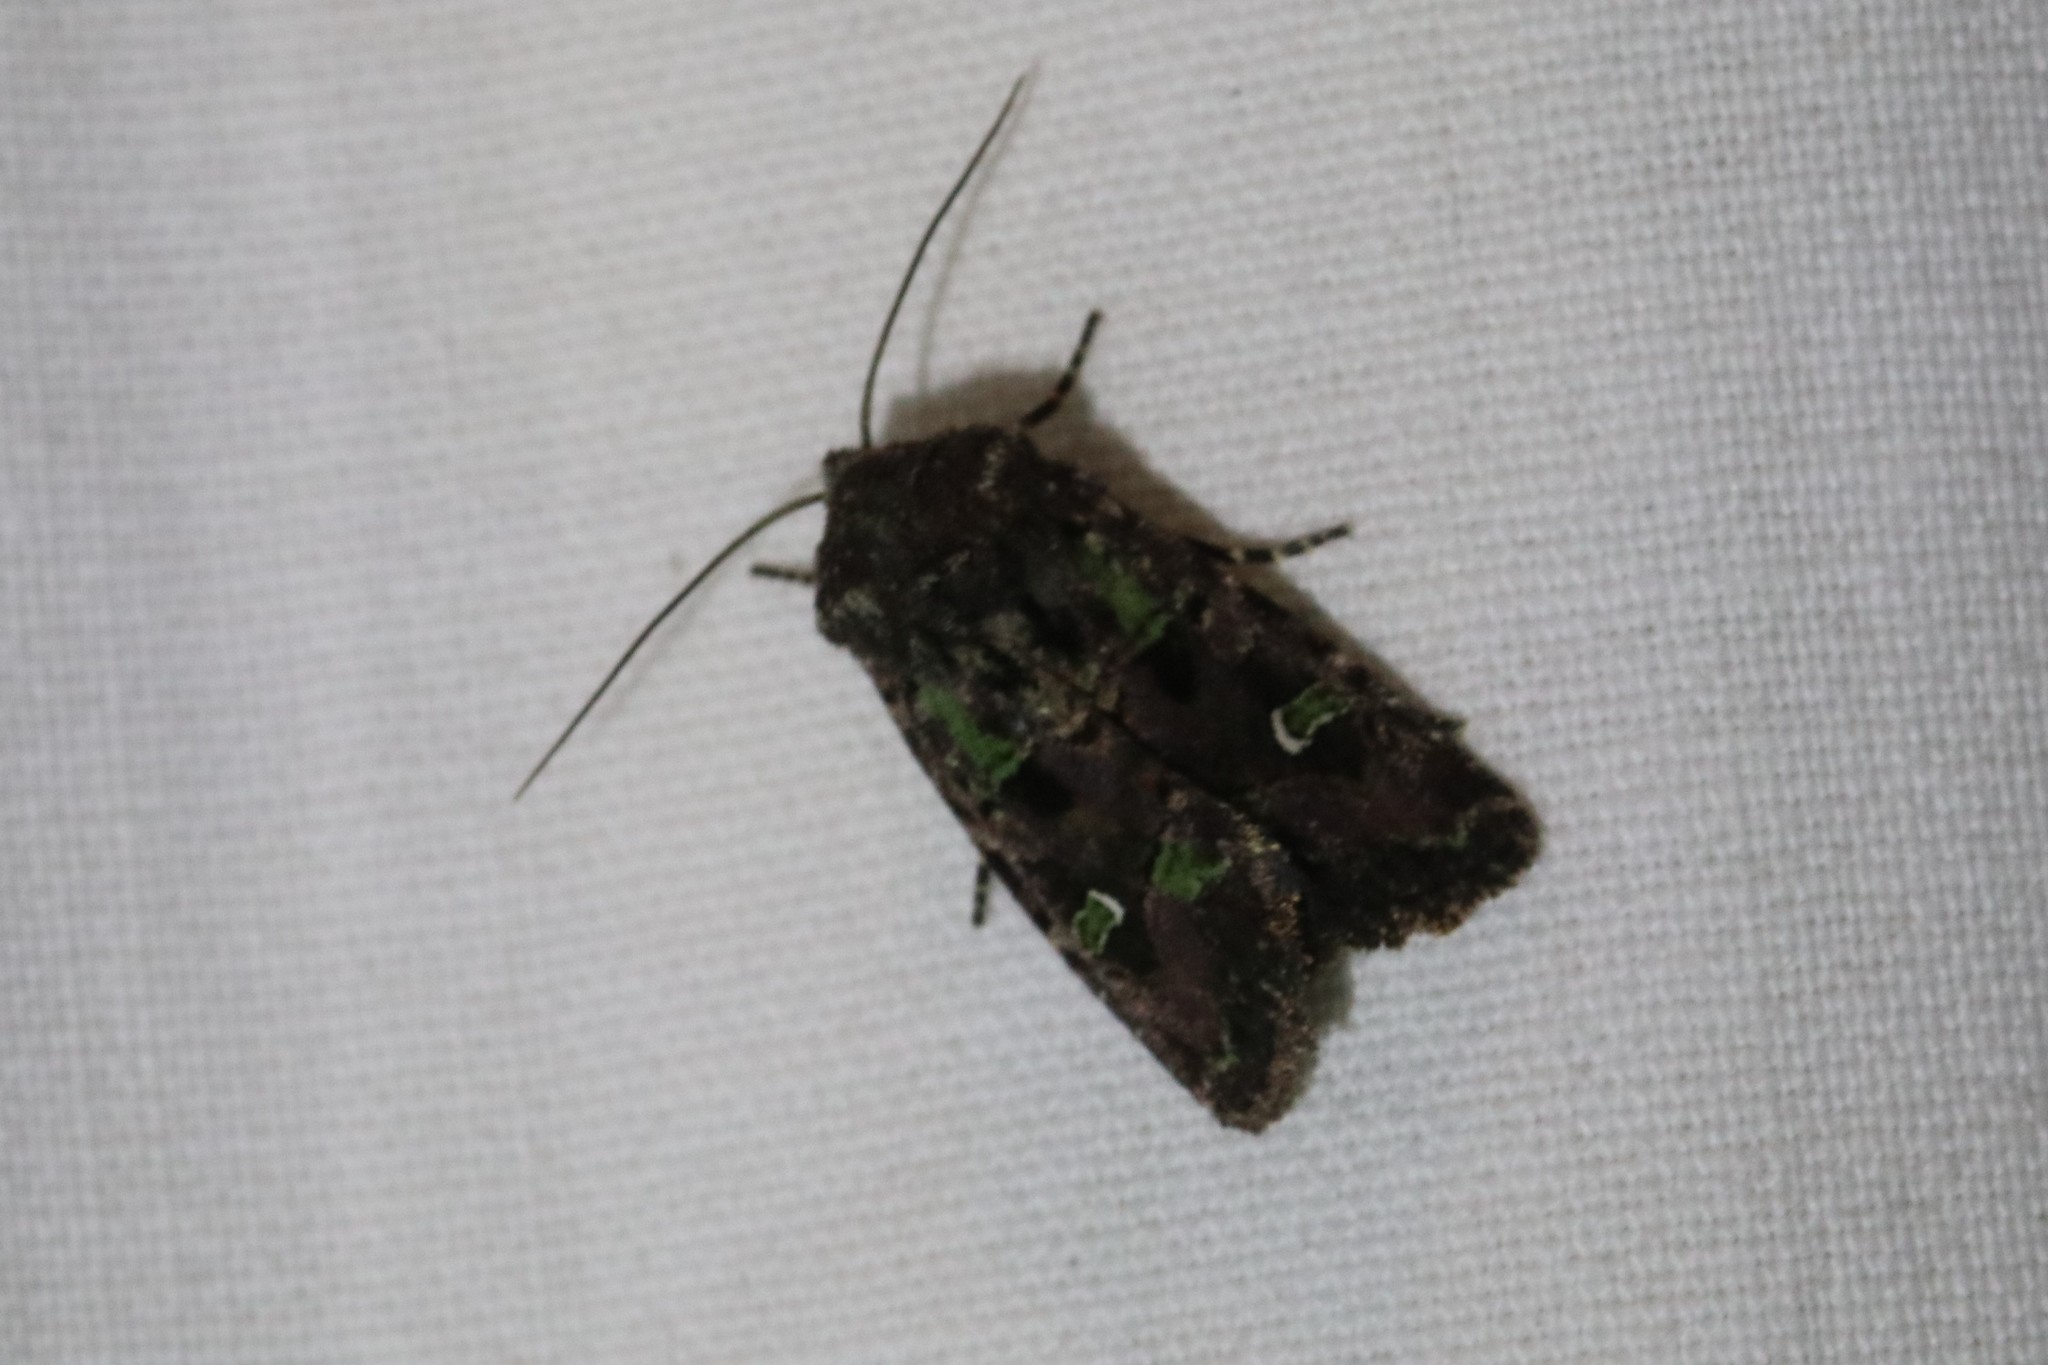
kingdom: Animalia
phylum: Arthropoda
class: Insecta
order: Lepidoptera
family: Noctuidae
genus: Lacinipolia
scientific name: Lacinipolia renigera
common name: Kidney-spotted minor
